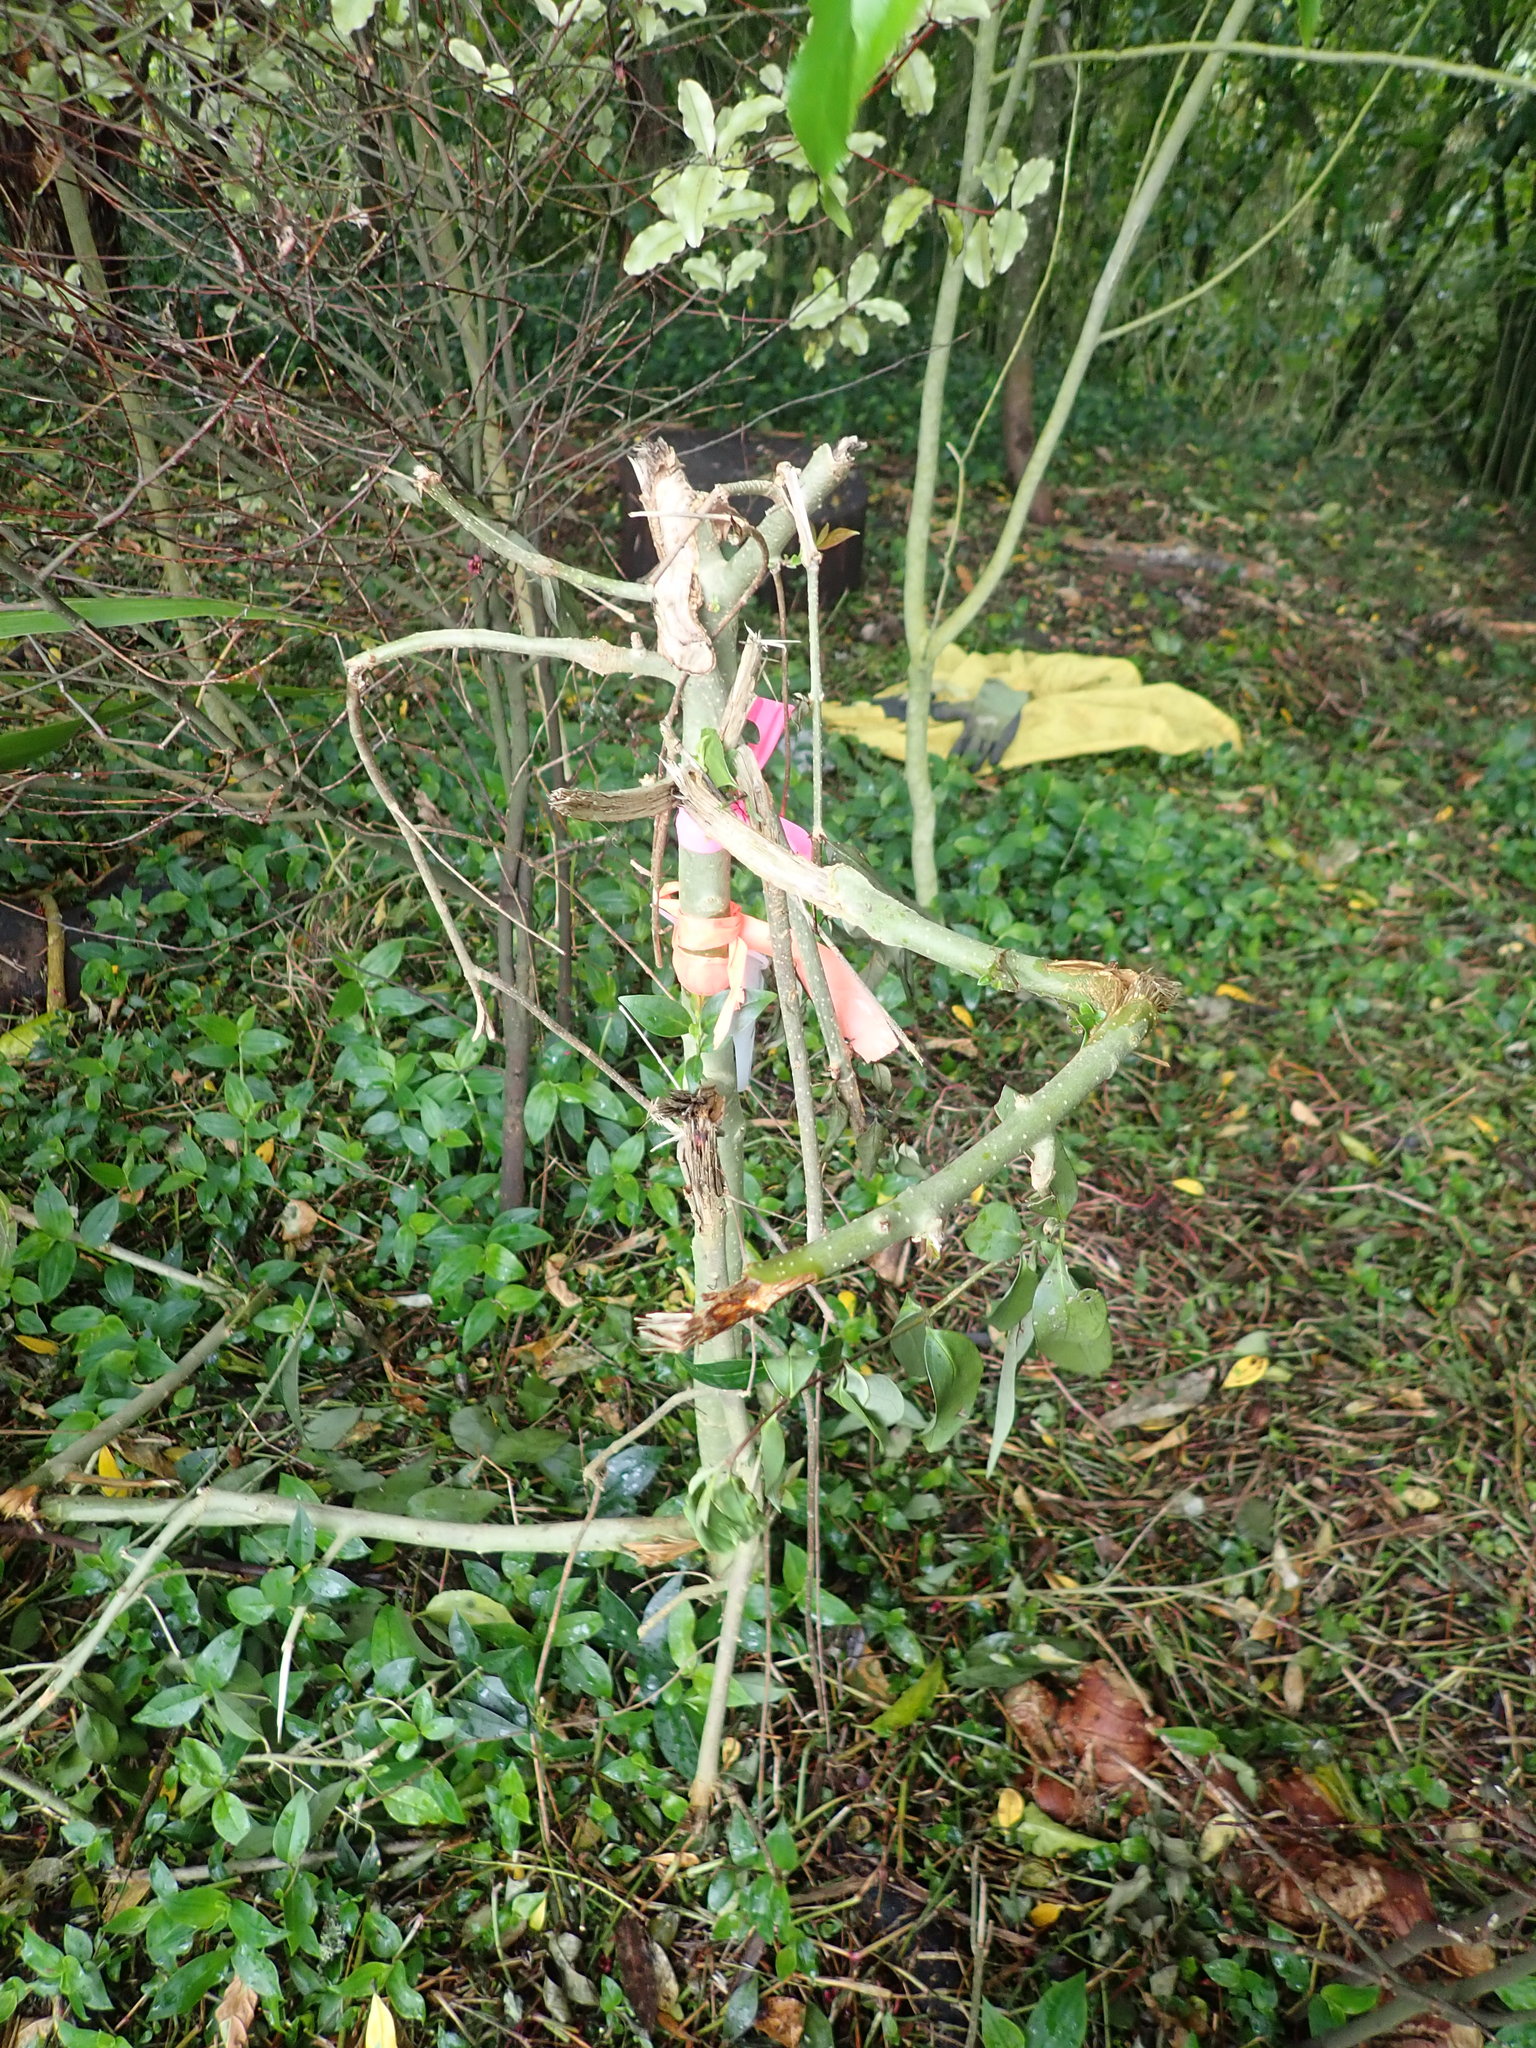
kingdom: Plantae
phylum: Tracheophyta
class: Magnoliopsida
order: Lamiales
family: Oleaceae
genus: Ligustrum
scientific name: Ligustrum lucidum
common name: Glossy privet
